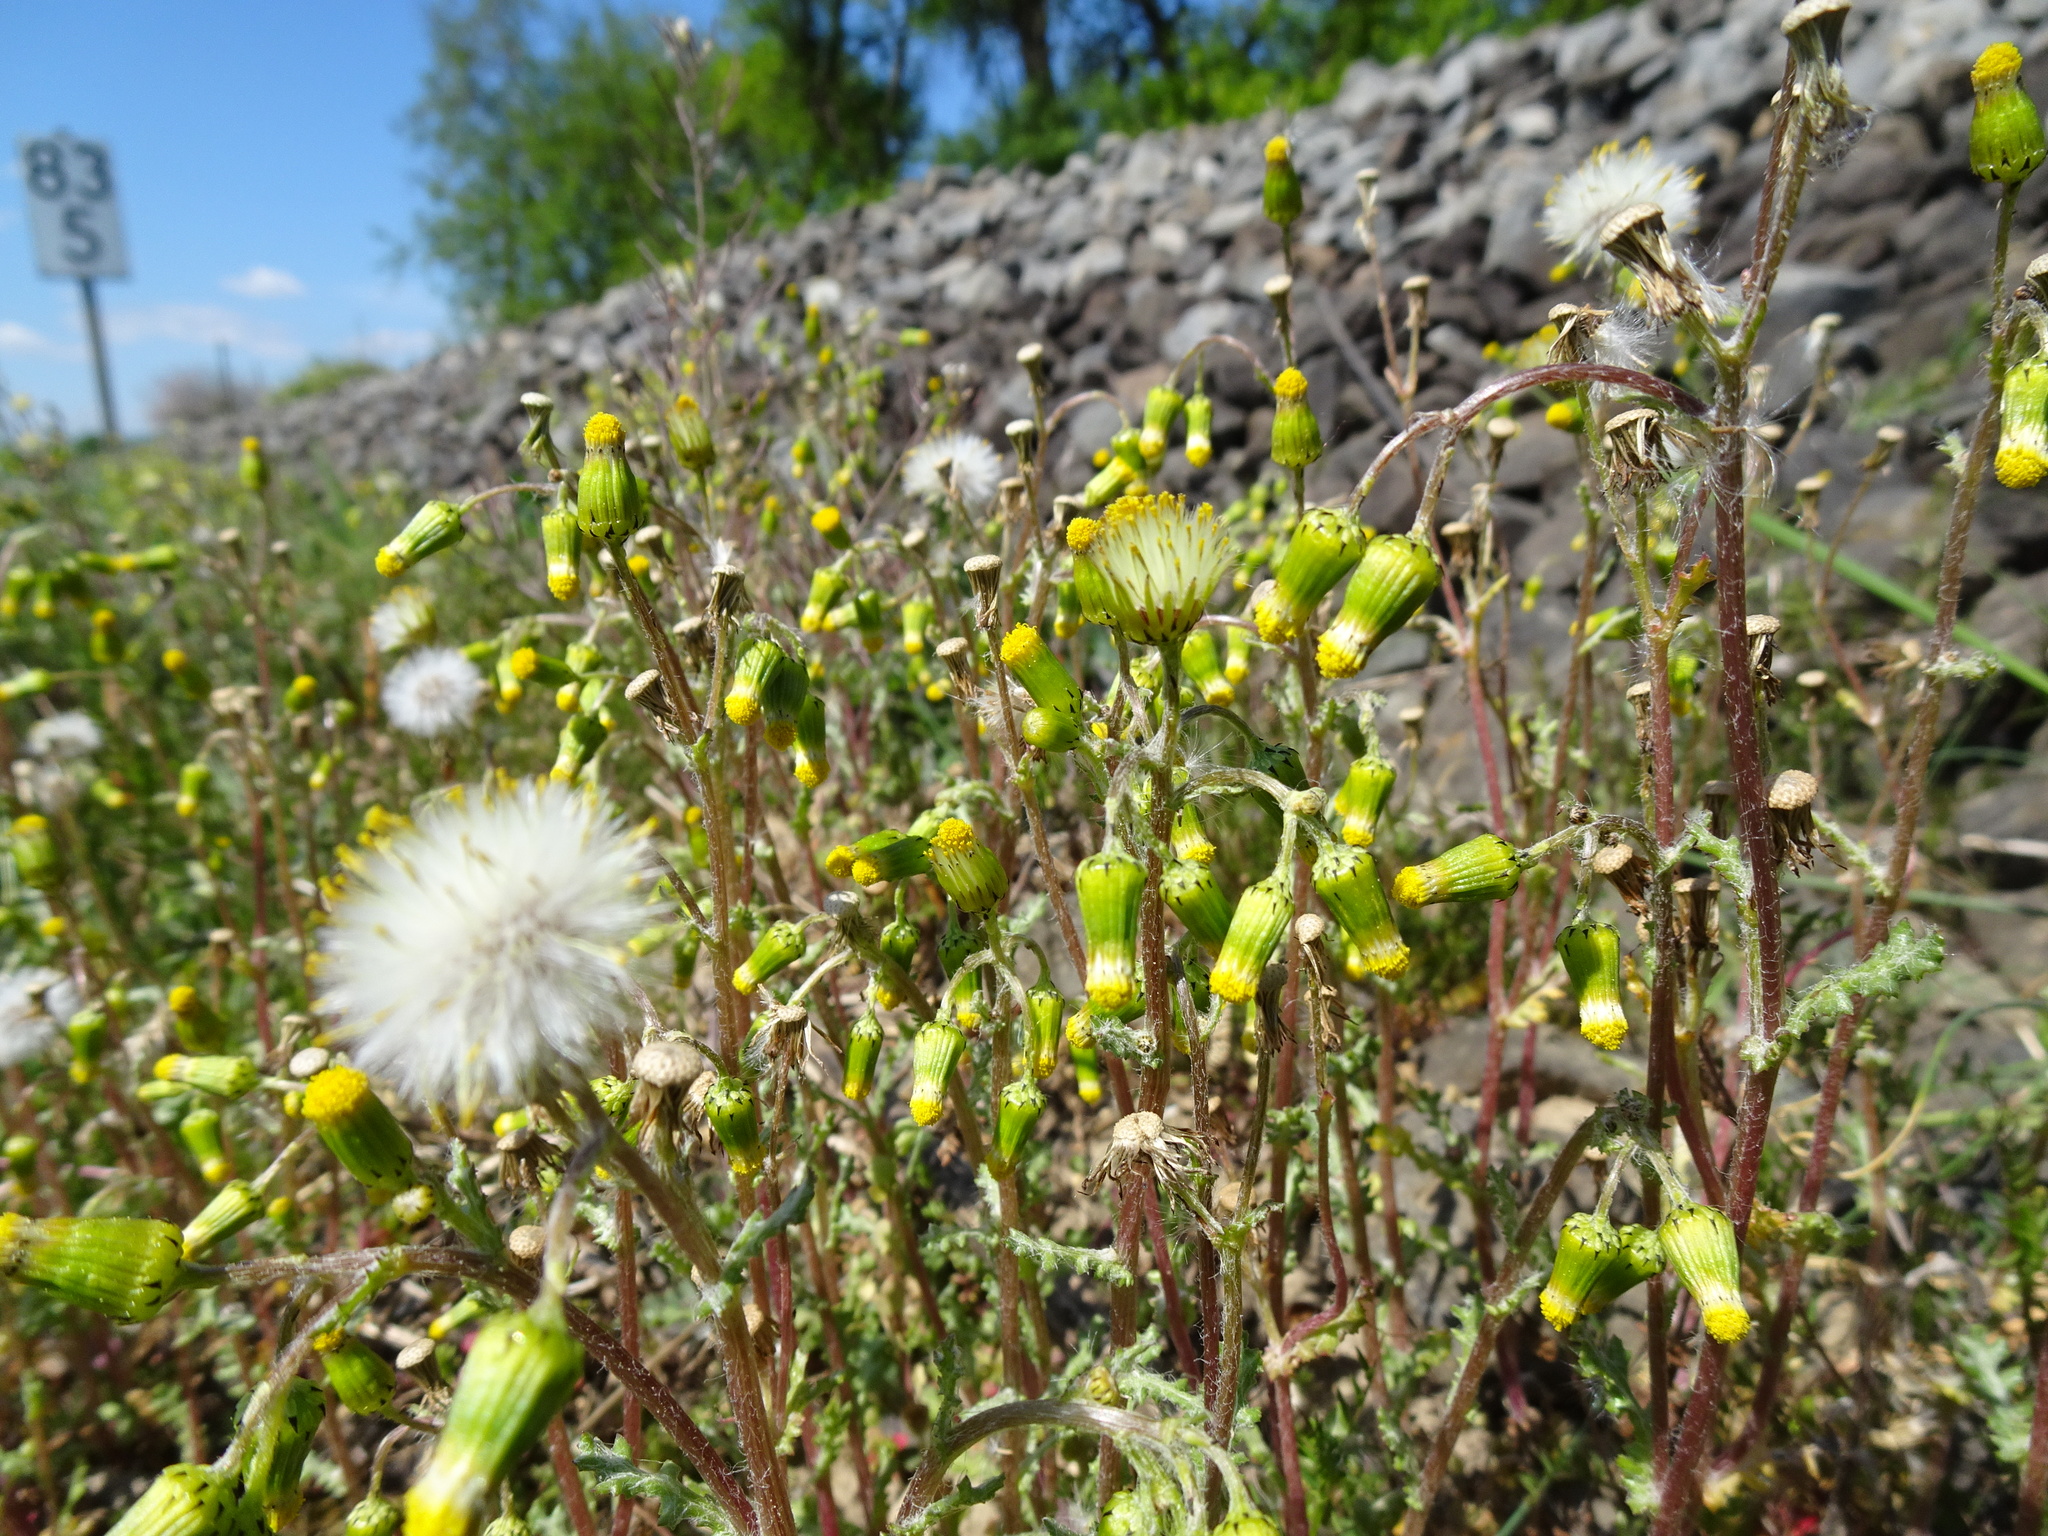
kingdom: Plantae
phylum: Tracheophyta
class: Magnoliopsida
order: Asterales
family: Asteraceae
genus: Senecio
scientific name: Senecio vulgaris
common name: Old-man-in-the-spring
